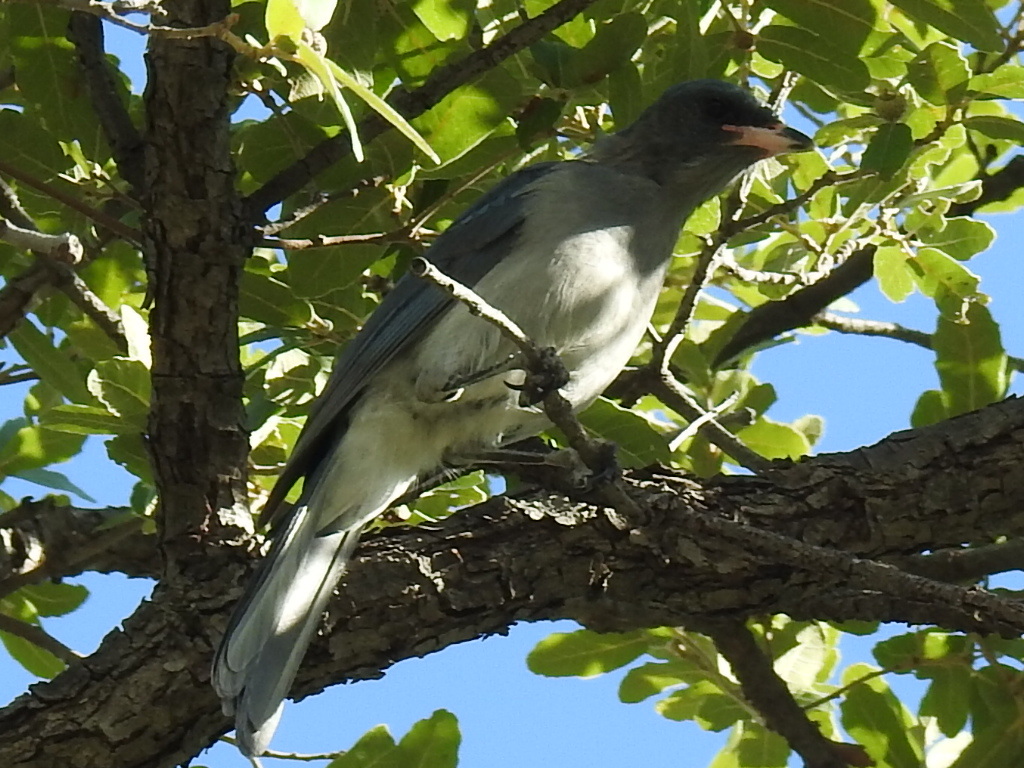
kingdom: Animalia
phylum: Chordata
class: Aves
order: Passeriformes
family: Corvidae
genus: Aphelocoma
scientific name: Aphelocoma wollweberi
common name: Mexican jay
